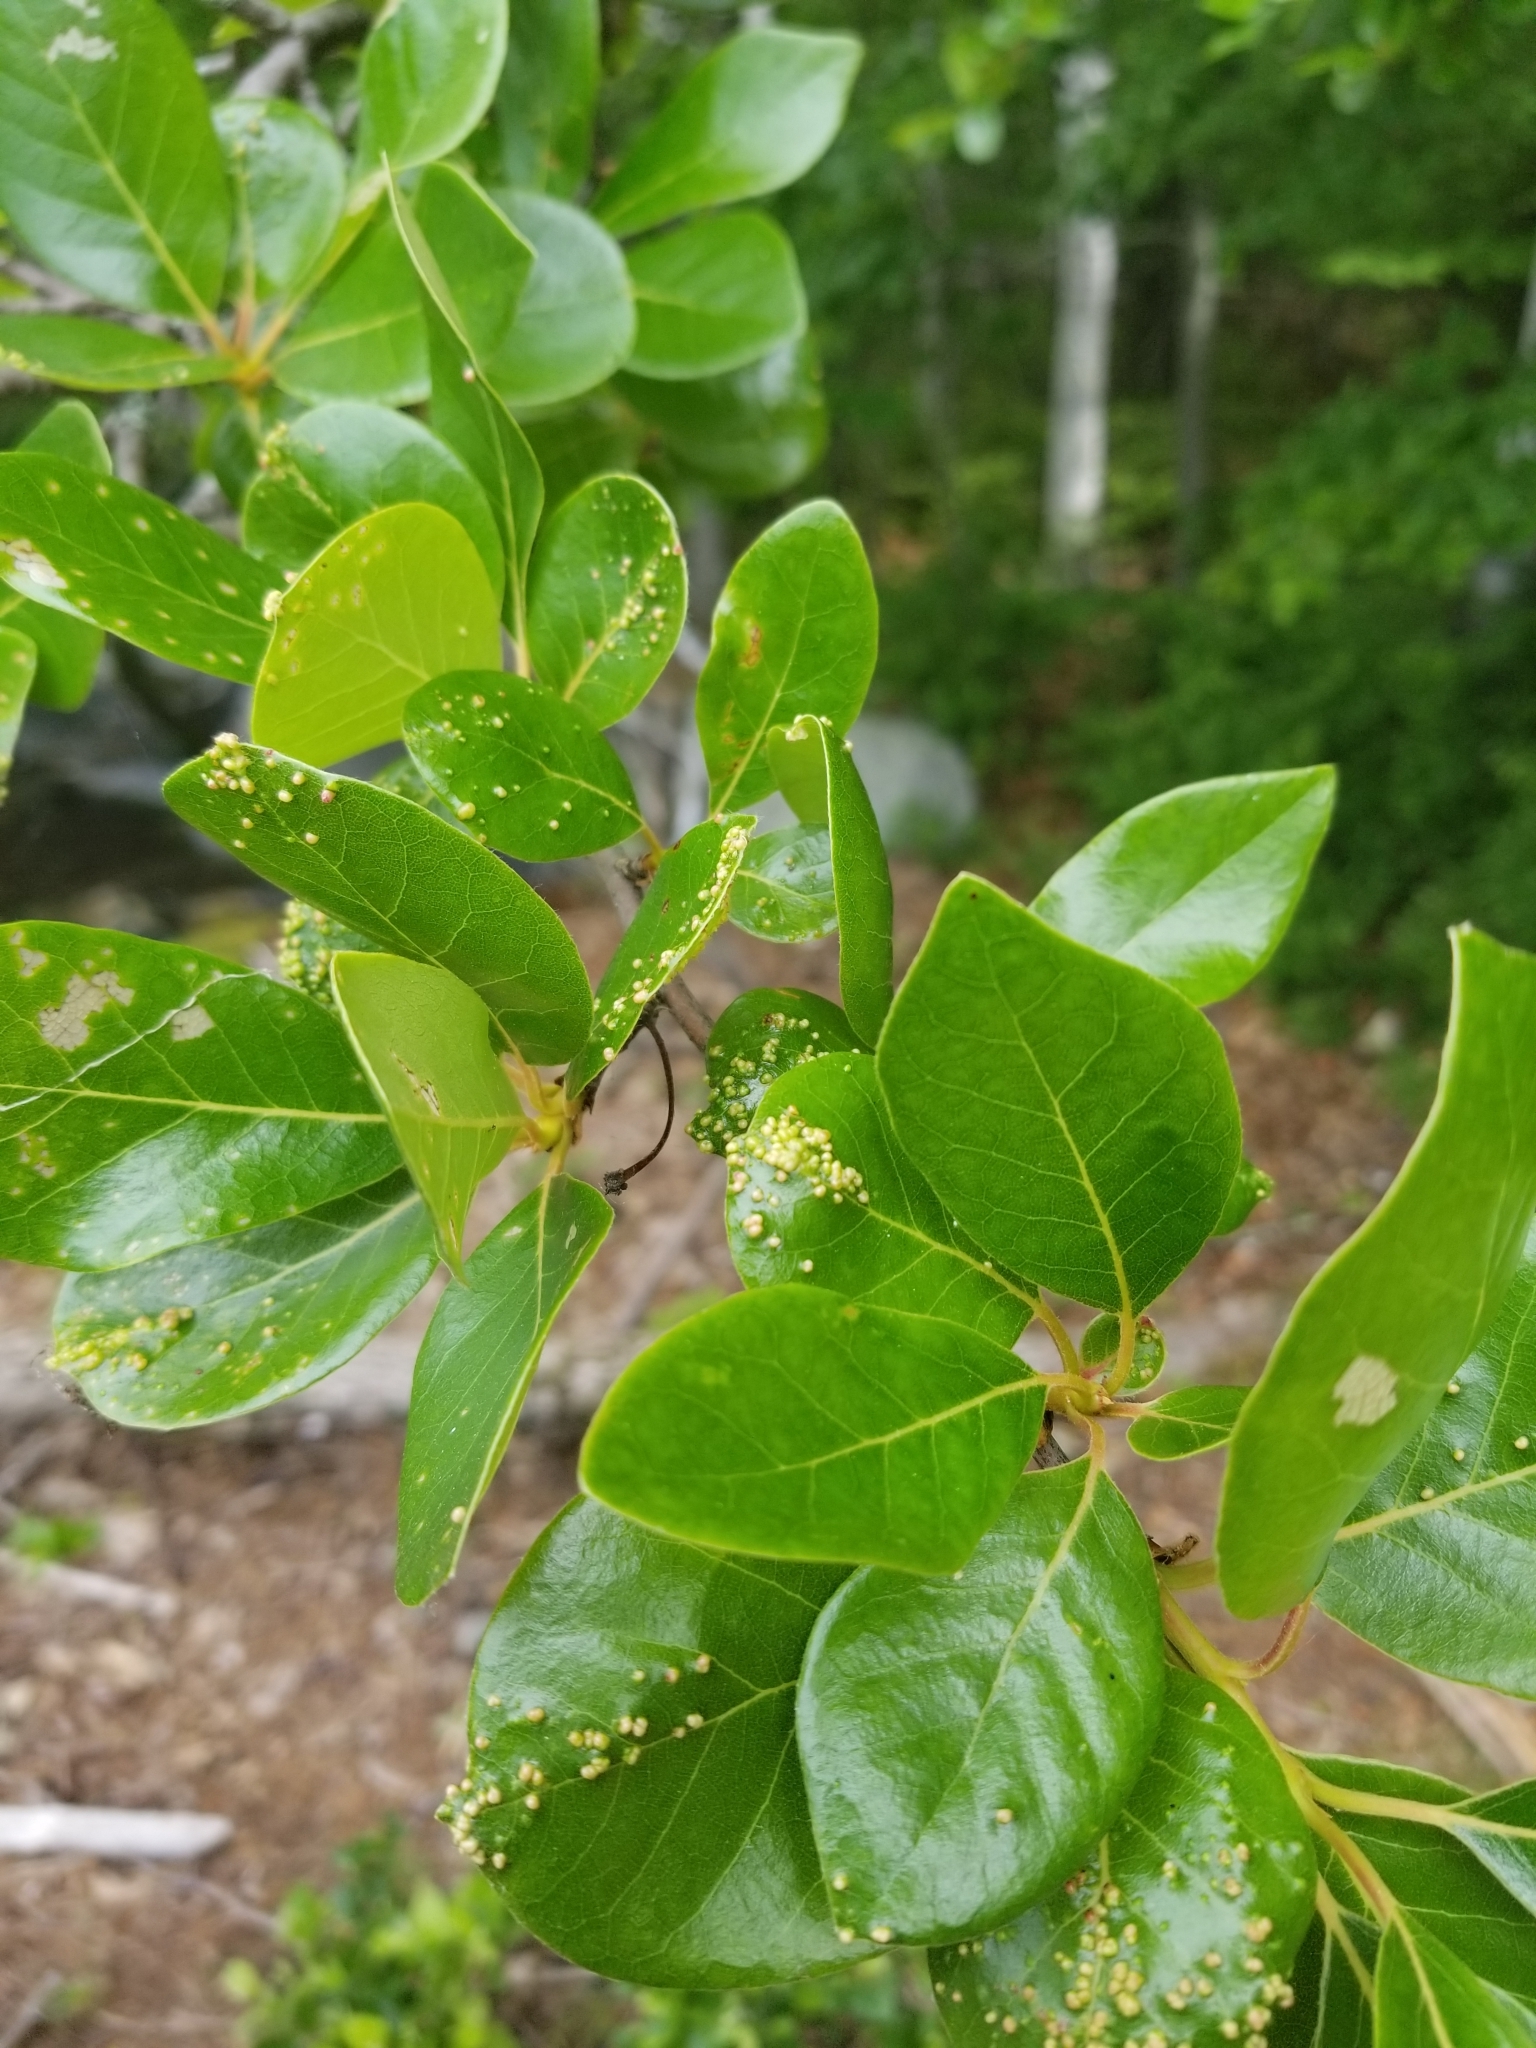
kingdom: Plantae
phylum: Tracheophyta
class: Magnoliopsida
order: Cornales
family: Nyssaceae
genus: Nyssa
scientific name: Nyssa sylvatica
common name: Black tupelo
